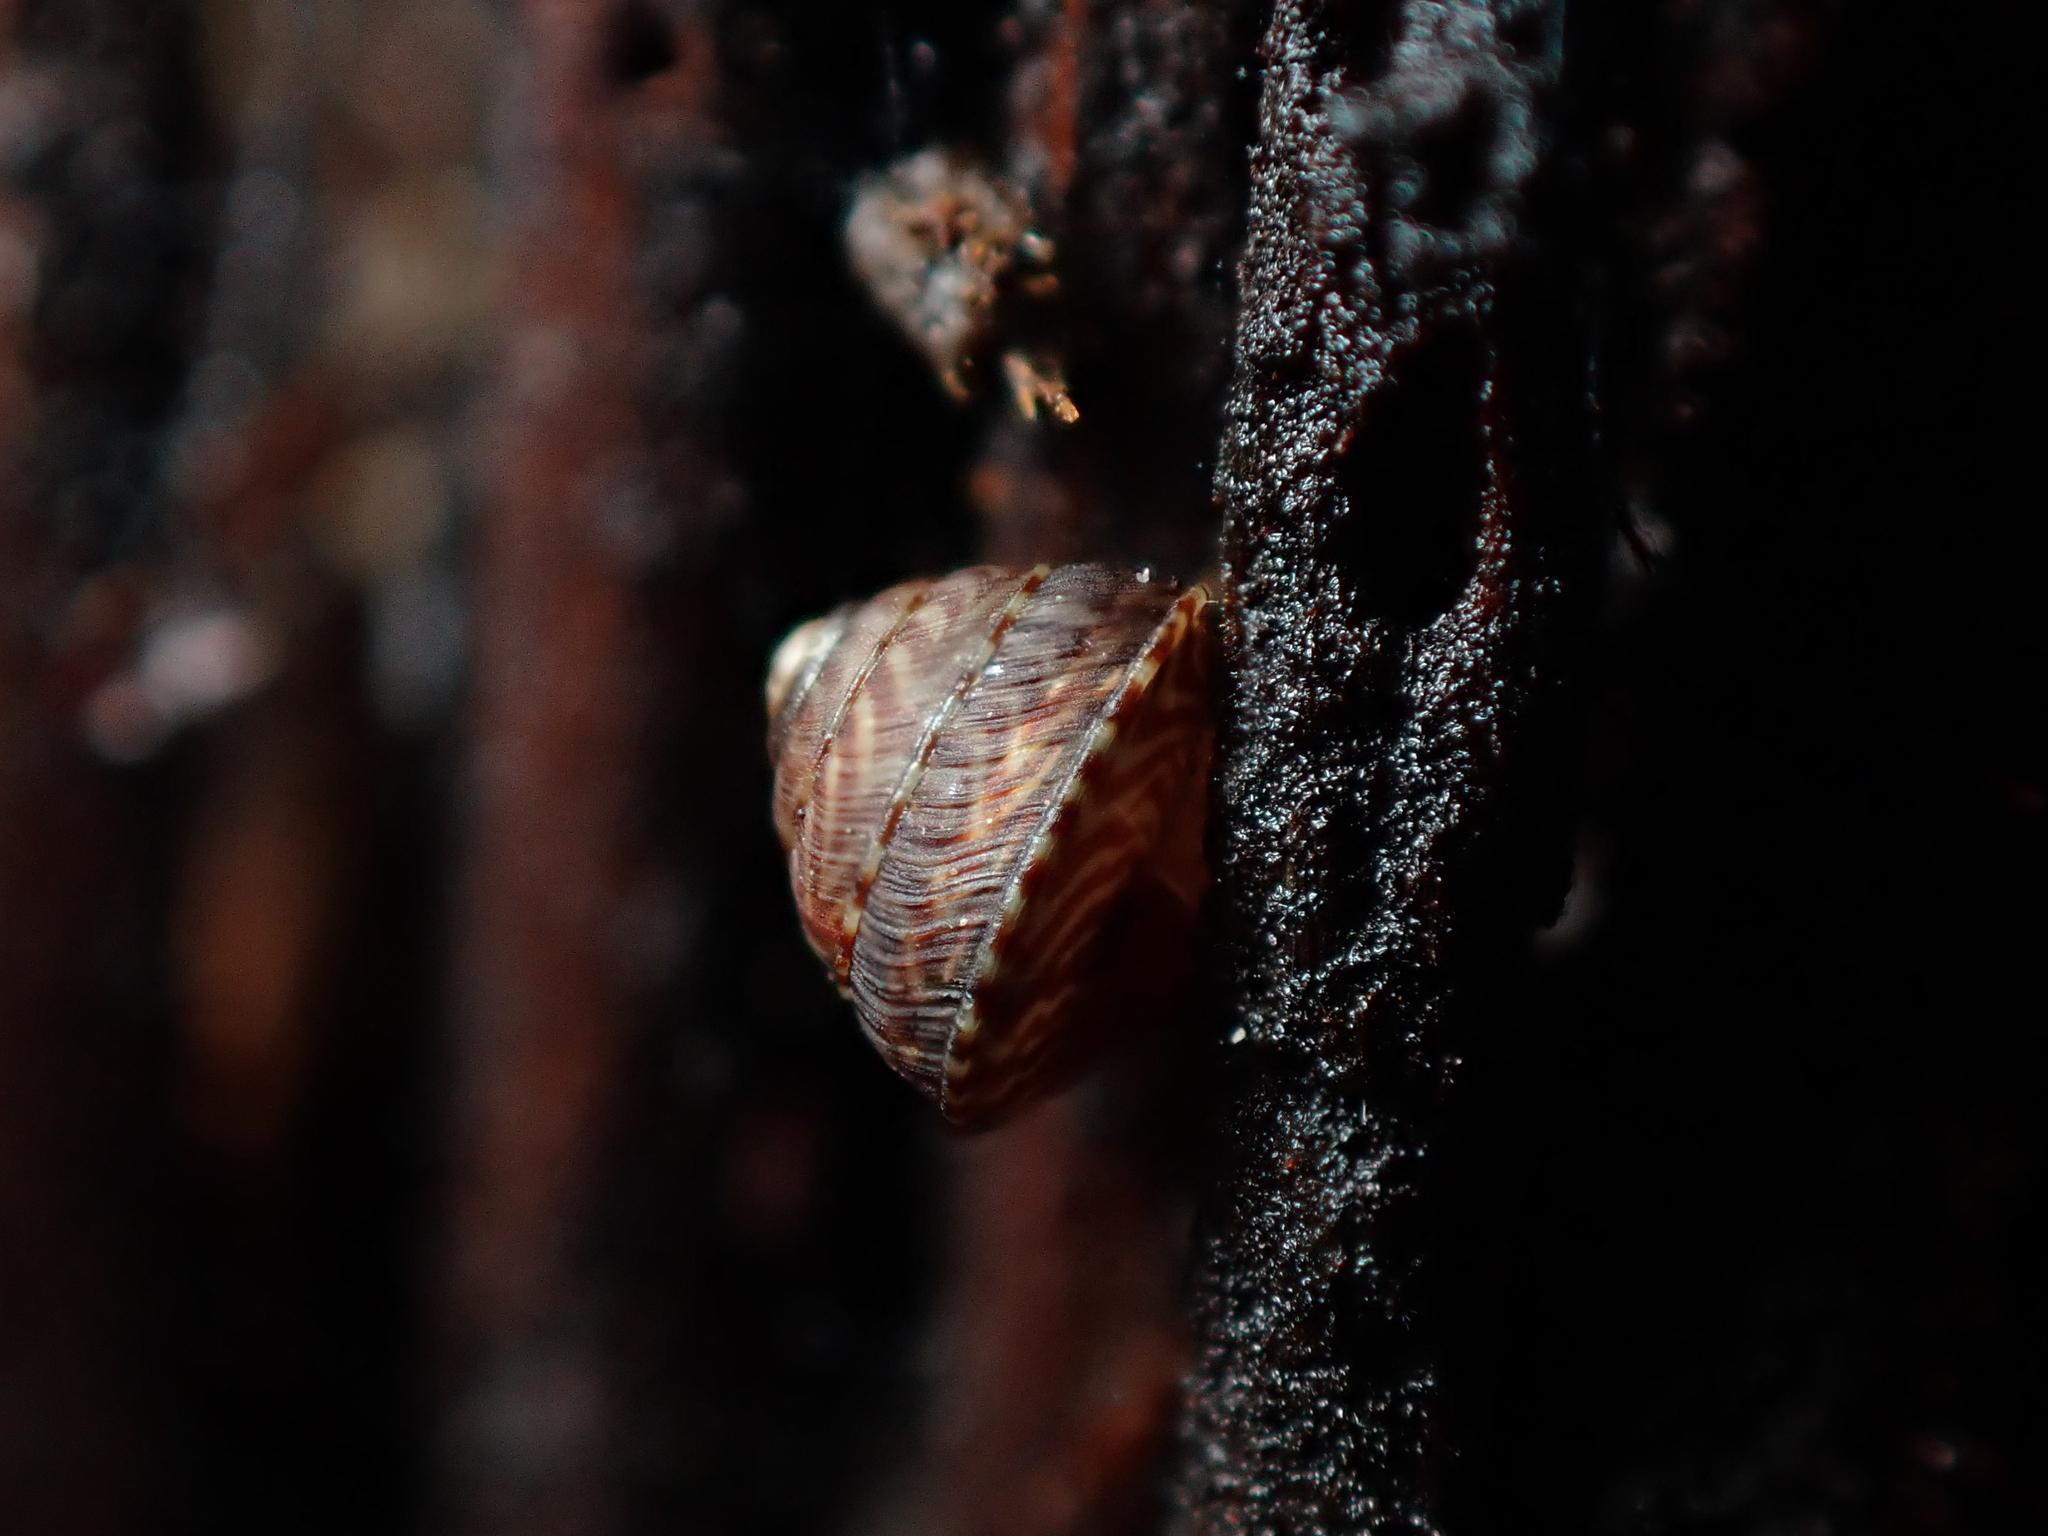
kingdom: Animalia
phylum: Mollusca
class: Gastropoda
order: Stylommatophora
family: Punctidae
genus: Laoma
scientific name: Laoma ordishi
